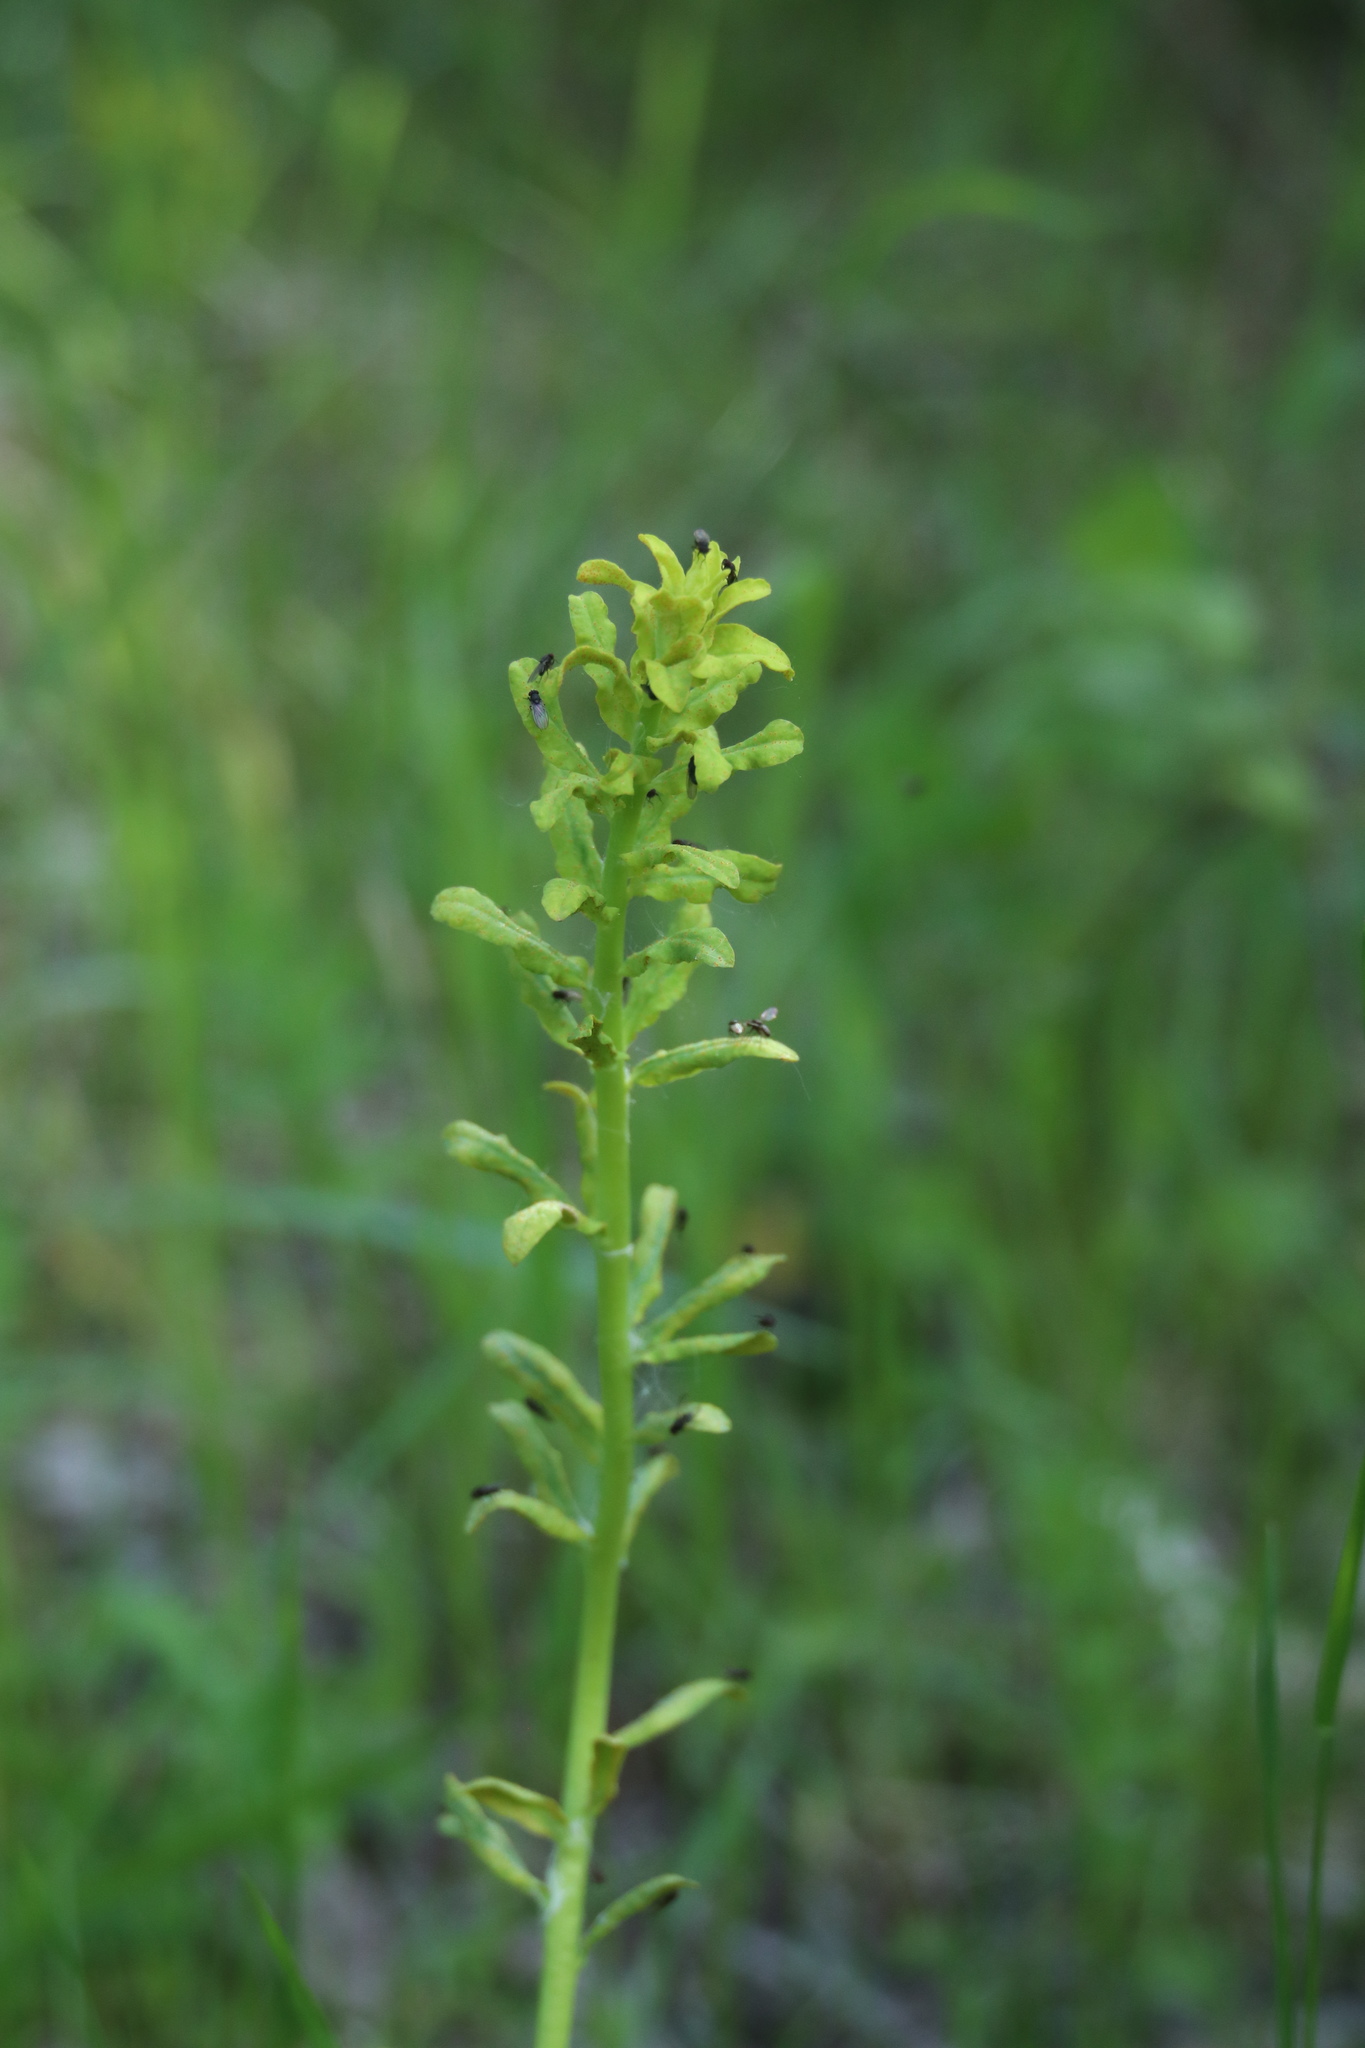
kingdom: Plantae
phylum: Tracheophyta
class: Magnoliopsida
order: Malpighiales
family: Euphorbiaceae
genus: Euphorbia
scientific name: Euphorbia cyparissias
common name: Cypress spurge
